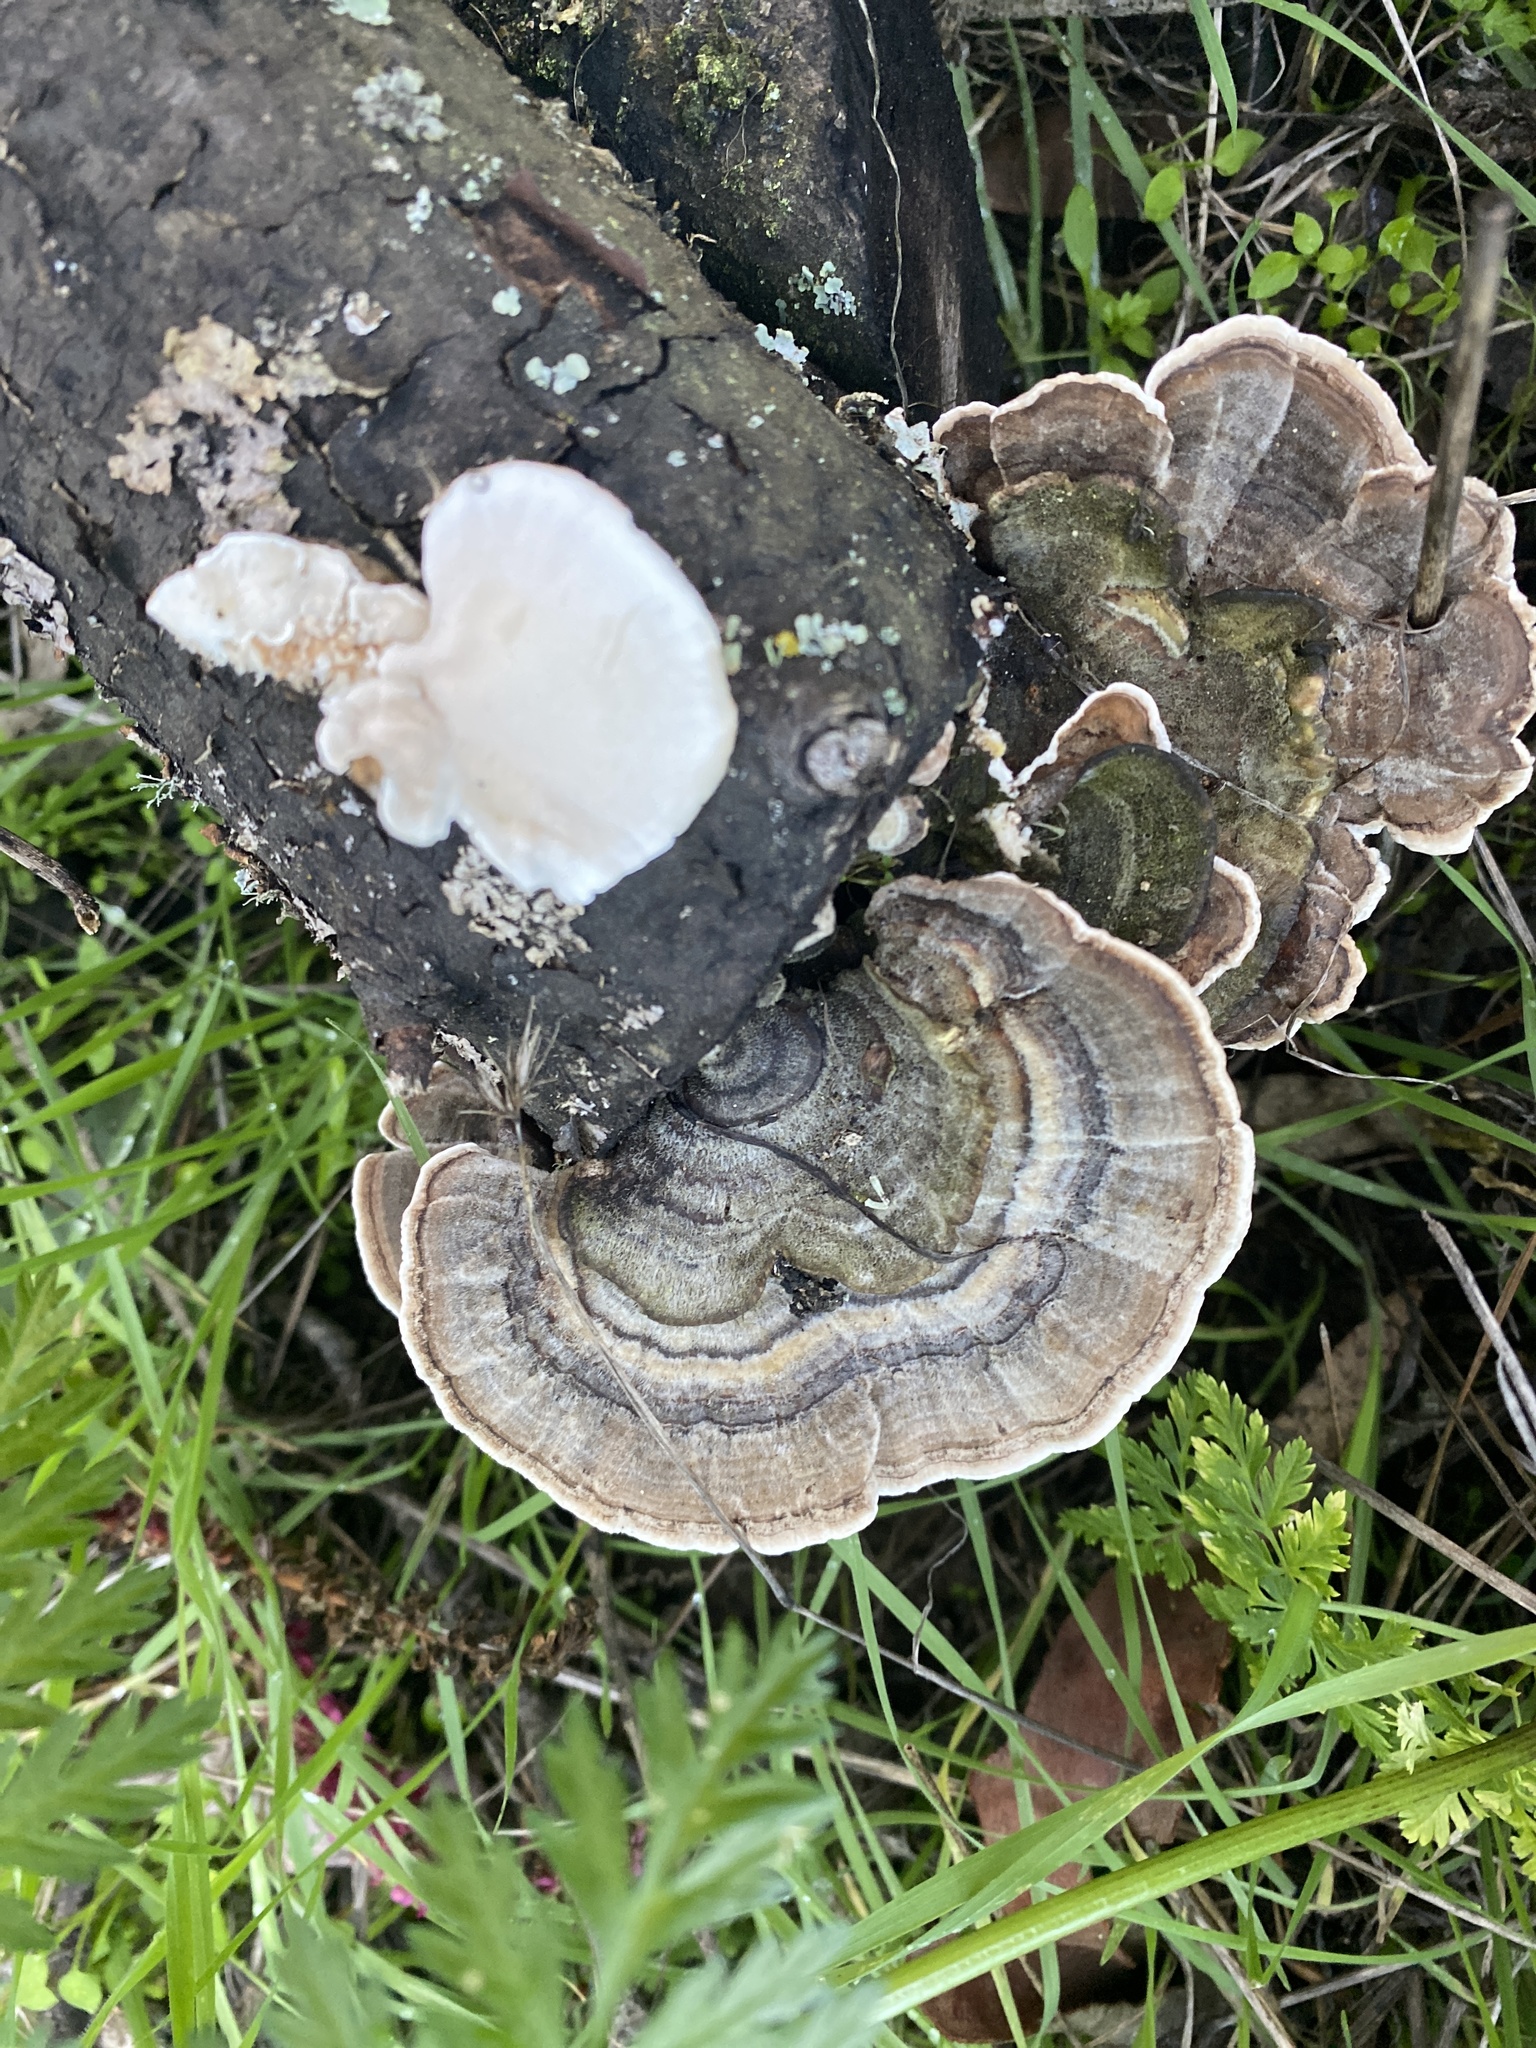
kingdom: Fungi
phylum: Basidiomycota
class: Agaricomycetes
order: Polyporales
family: Polyporaceae
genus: Trametes
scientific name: Trametes versicolor
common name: Turkeytail
